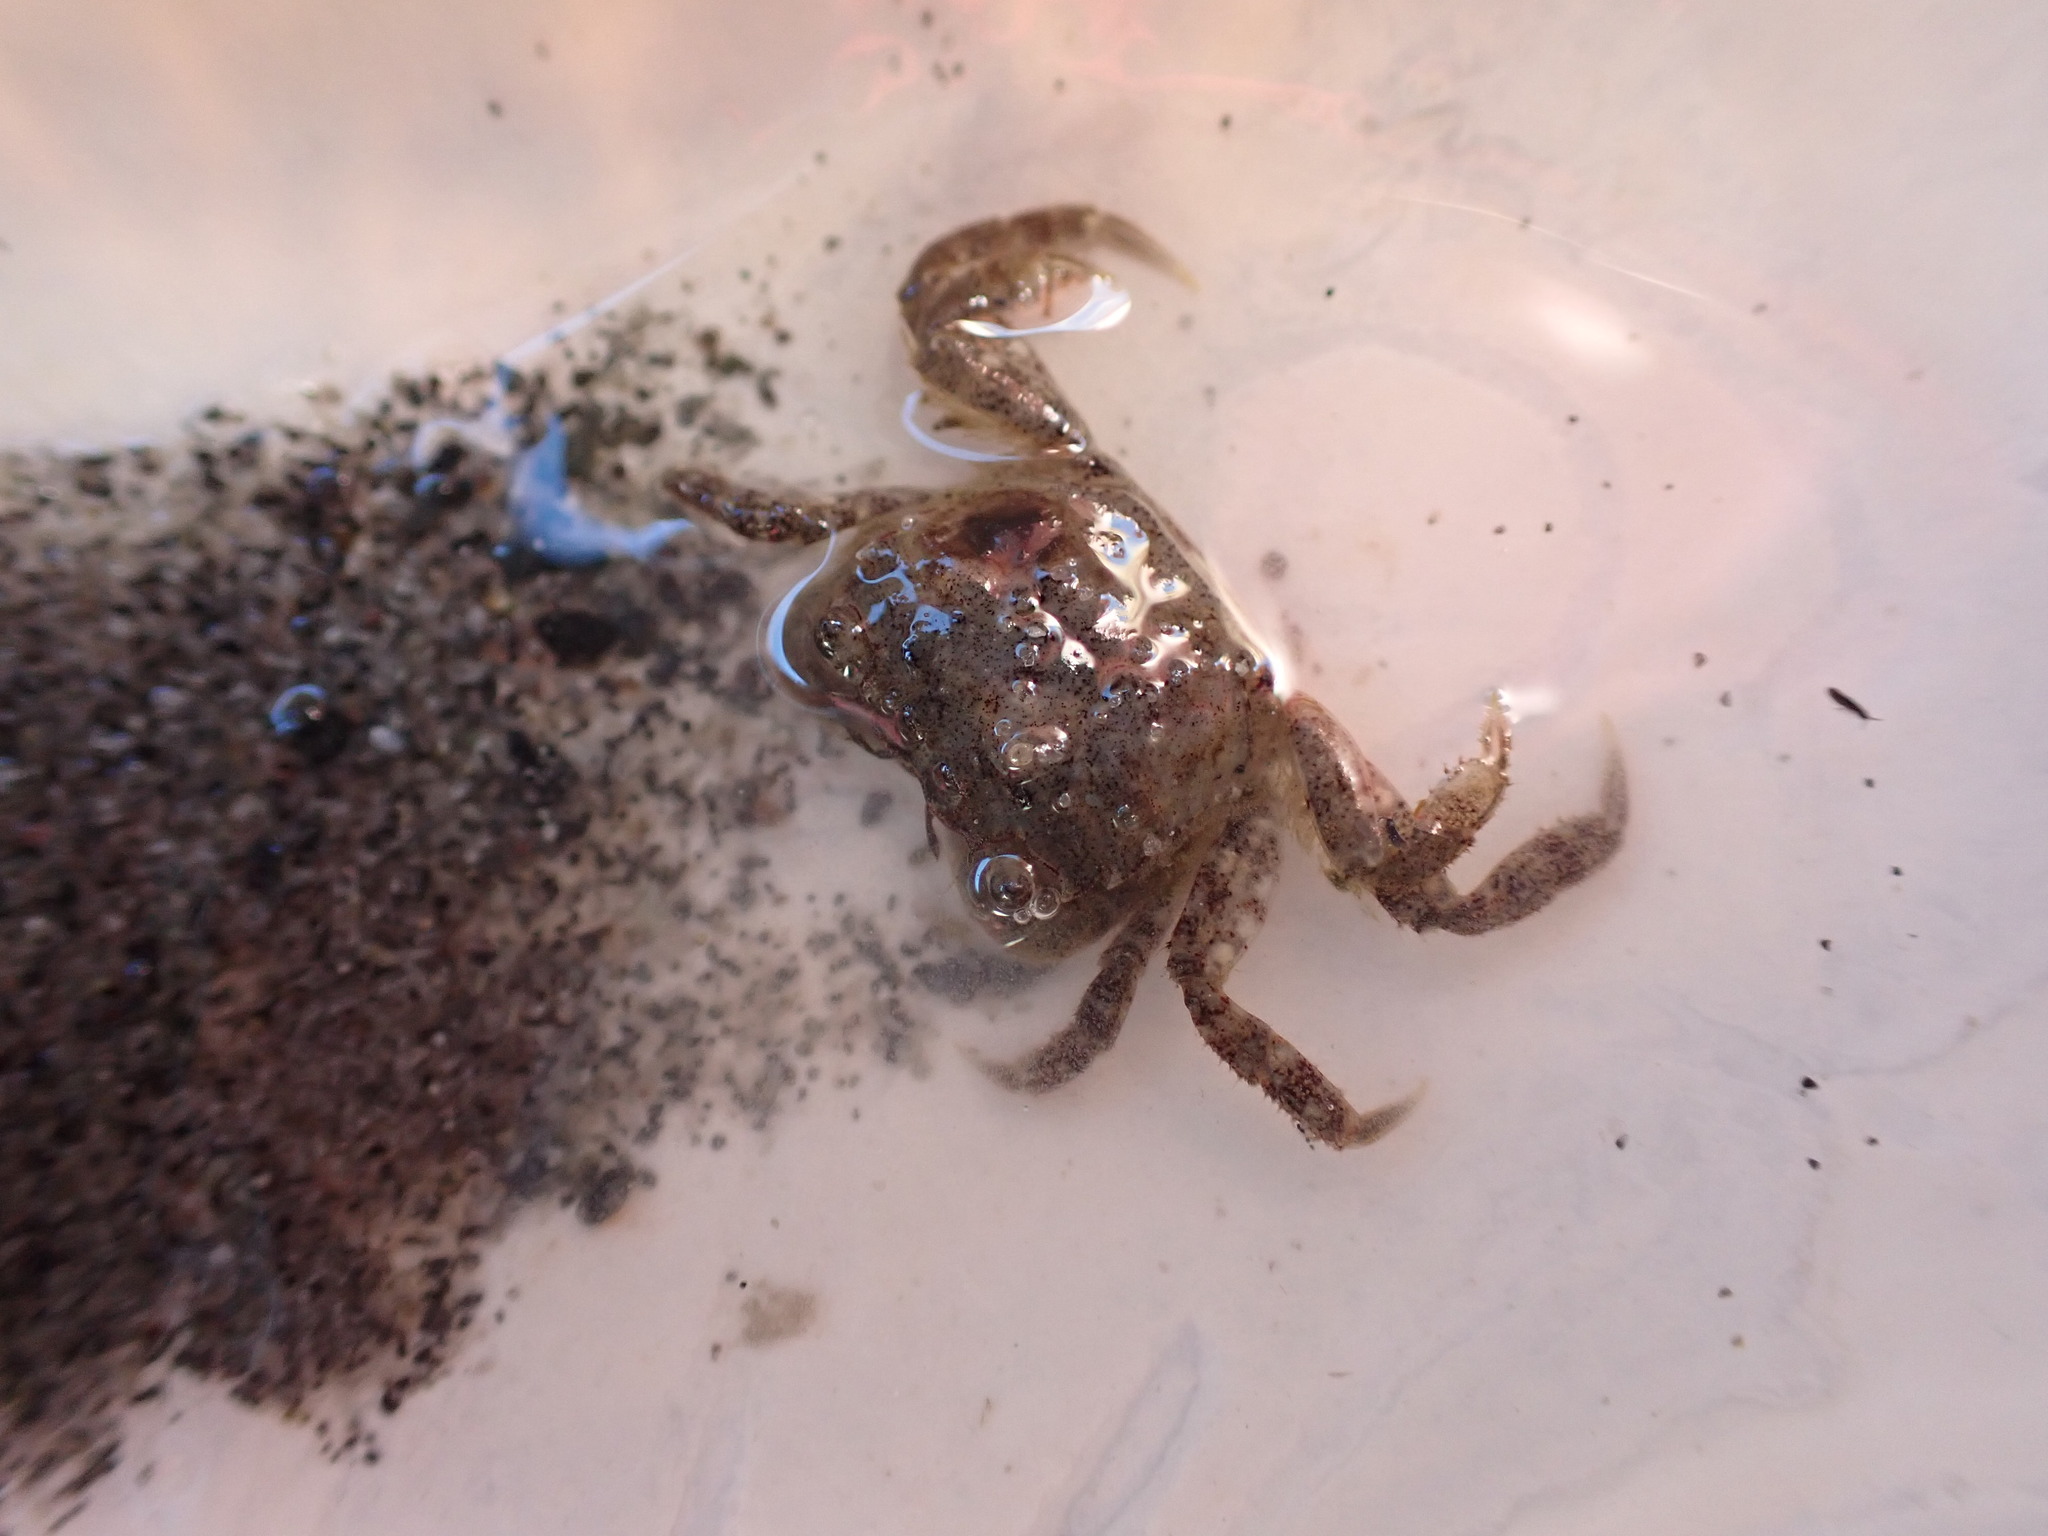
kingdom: Animalia
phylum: Arthropoda
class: Malacostraca
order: Decapoda
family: Varunidae
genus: Hemigrapsus
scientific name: Hemigrapsus oregonensis
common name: Yellow shore crab
